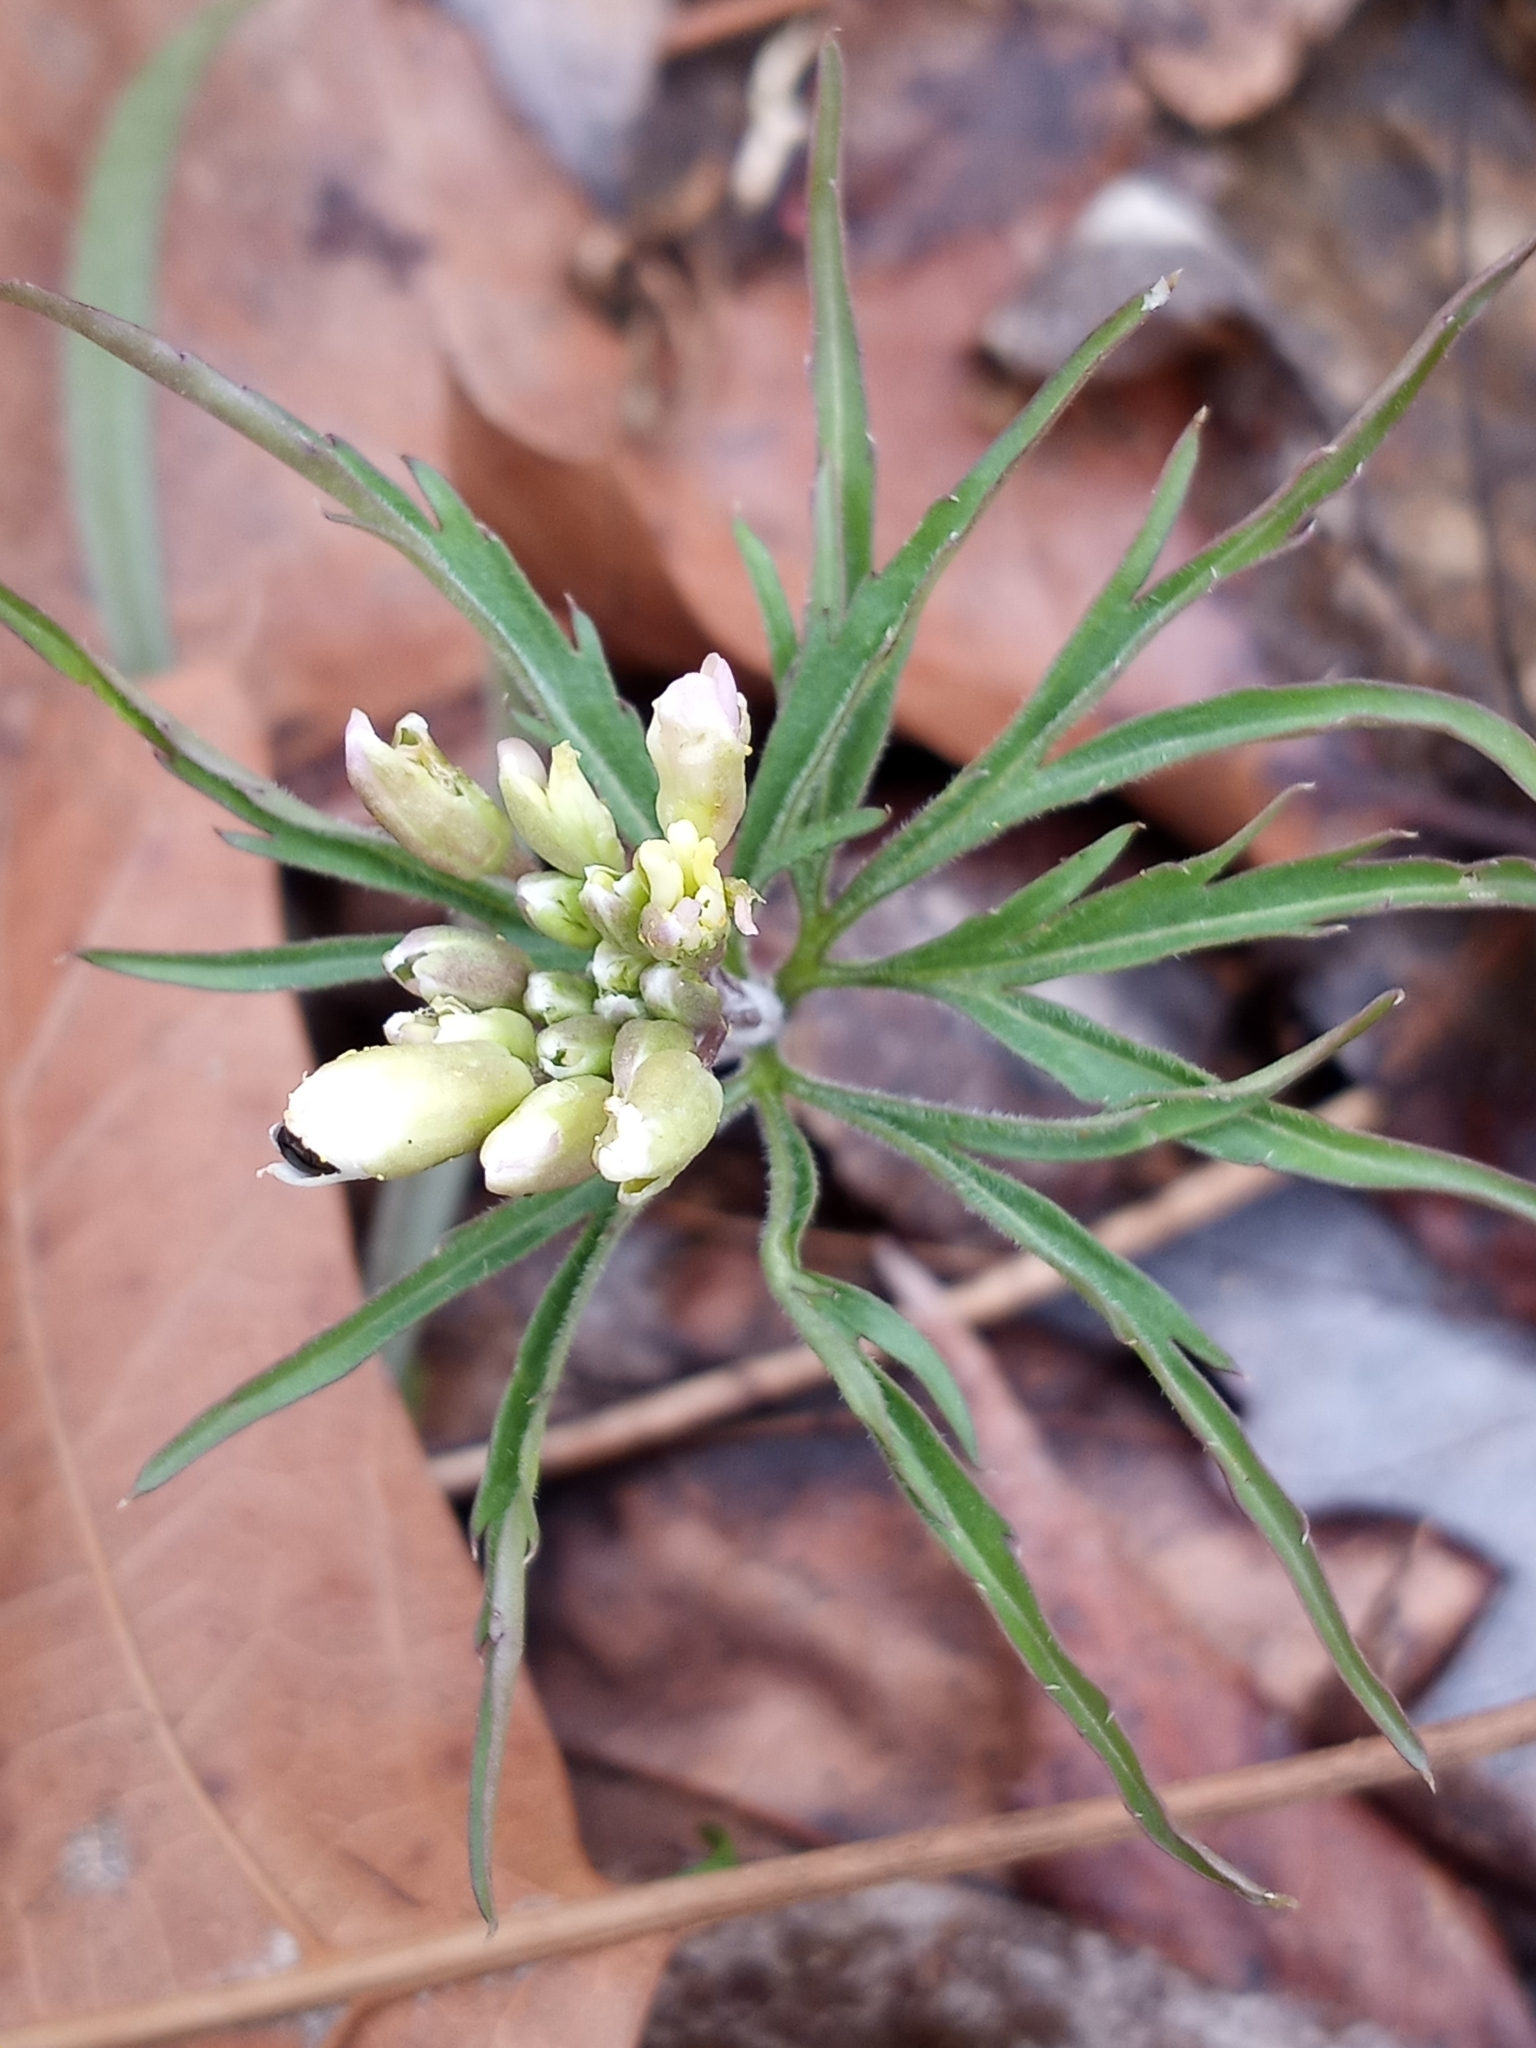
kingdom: Plantae
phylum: Tracheophyta
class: Magnoliopsida
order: Brassicales
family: Brassicaceae
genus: Cardamine
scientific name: Cardamine concatenata
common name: Cut-leaf toothcup
